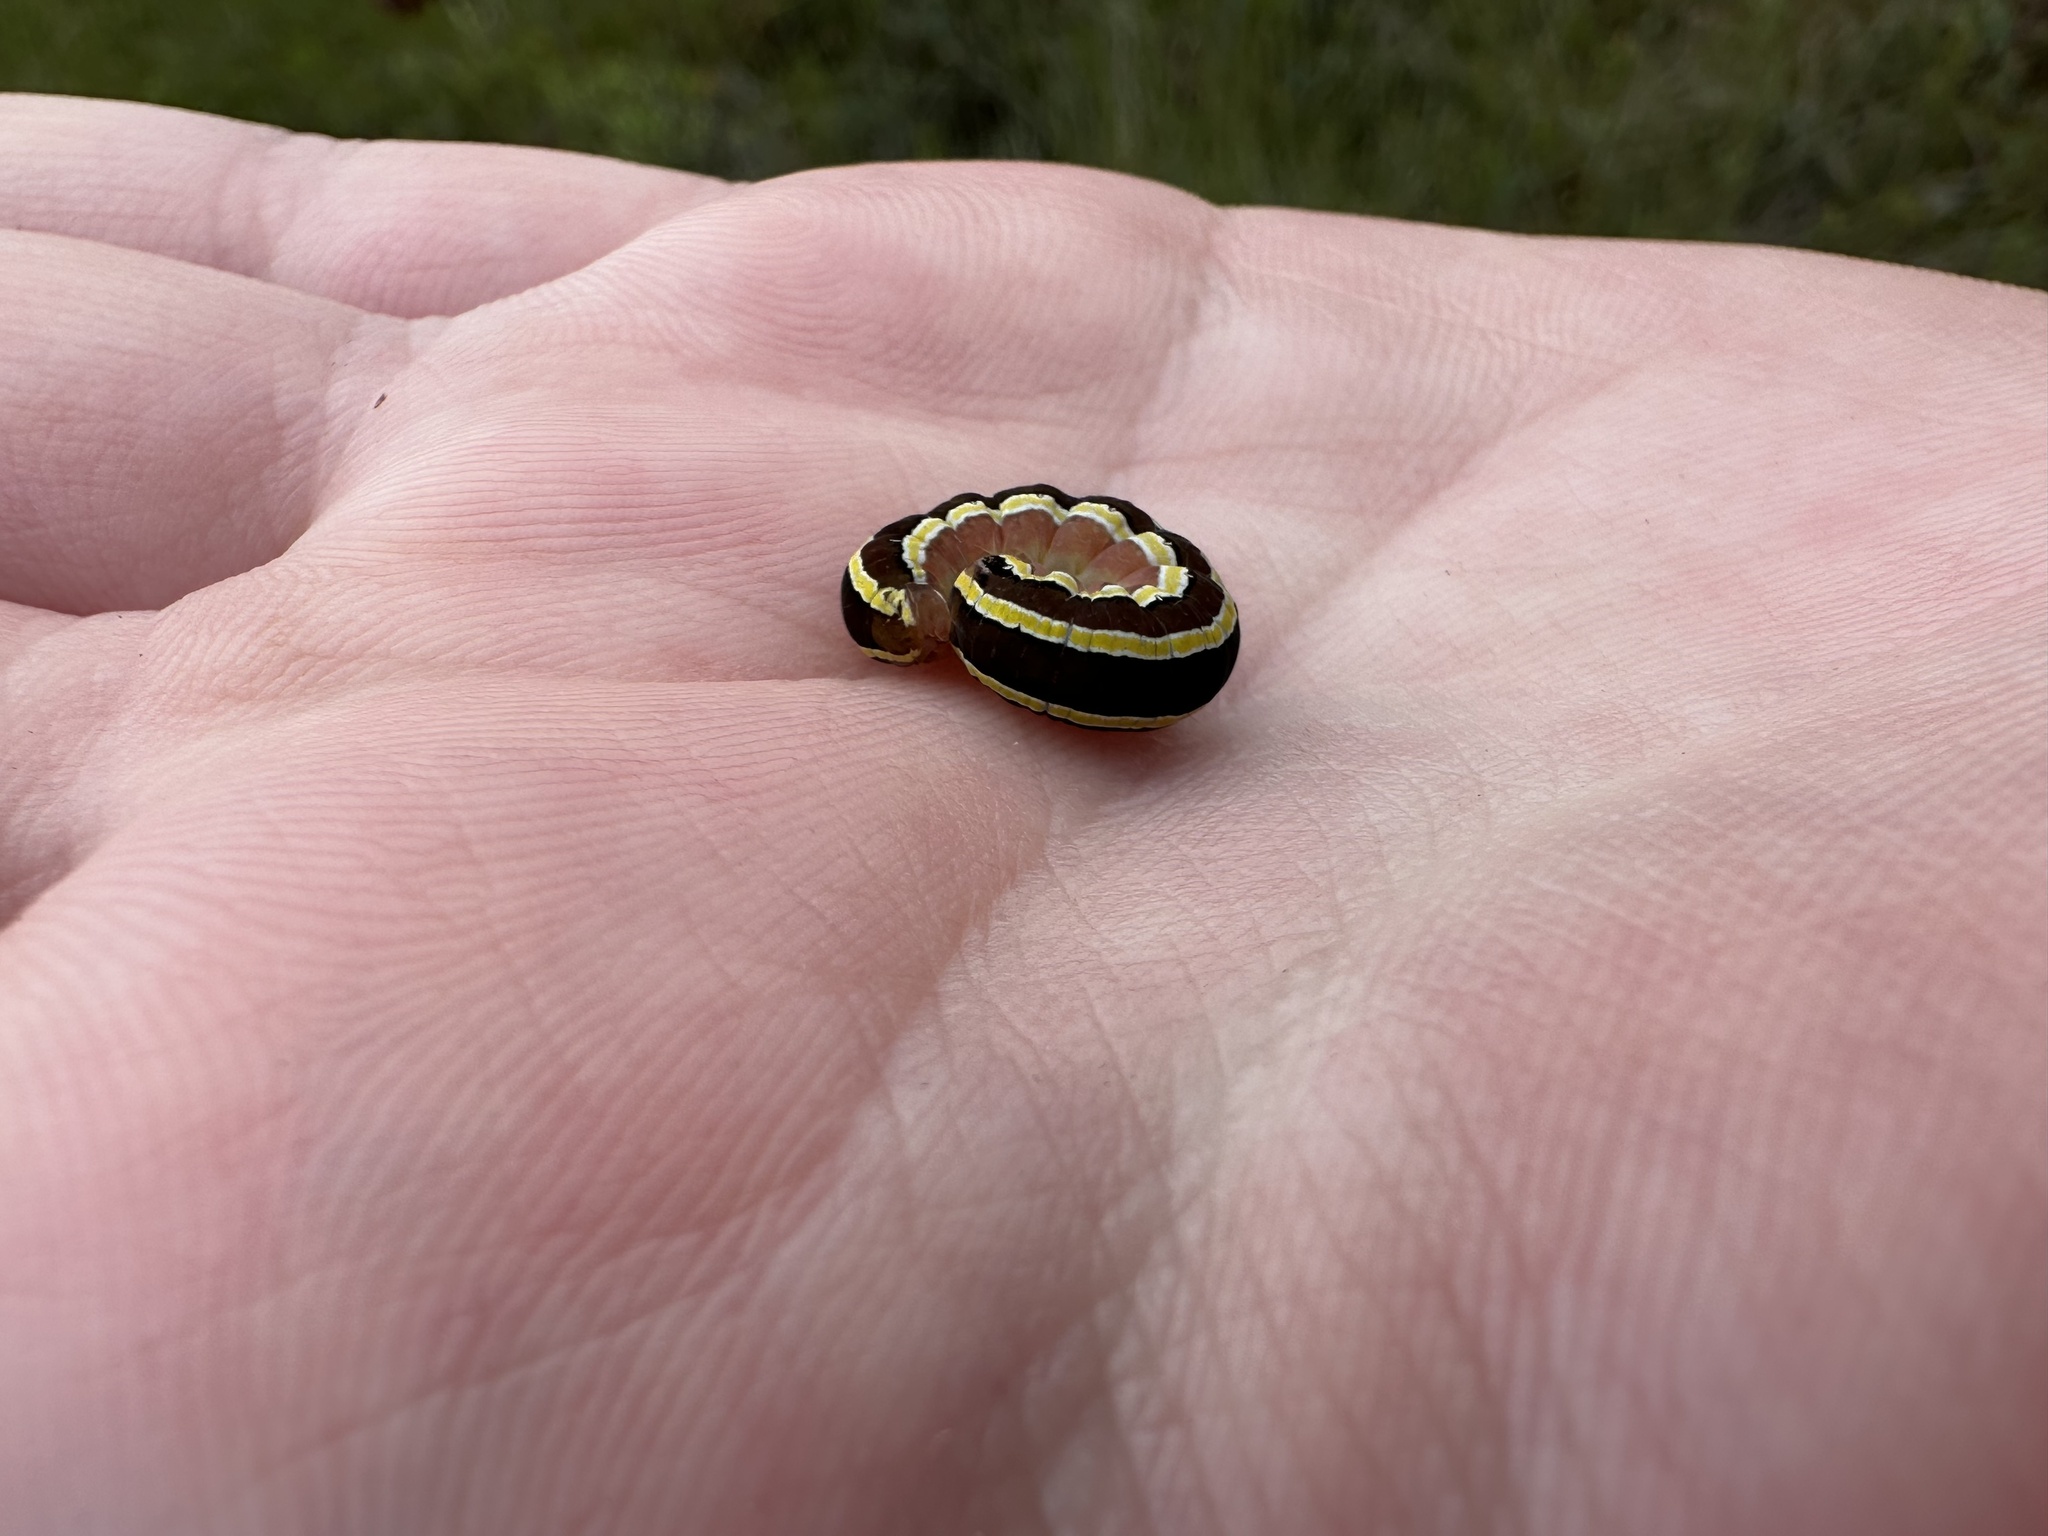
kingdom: Animalia
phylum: Arthropoda
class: Insecta
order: Lepidoptera
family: Noctuidae
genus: Trichordestra
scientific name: Trichordestra legitima
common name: Striped garden caterpillar
